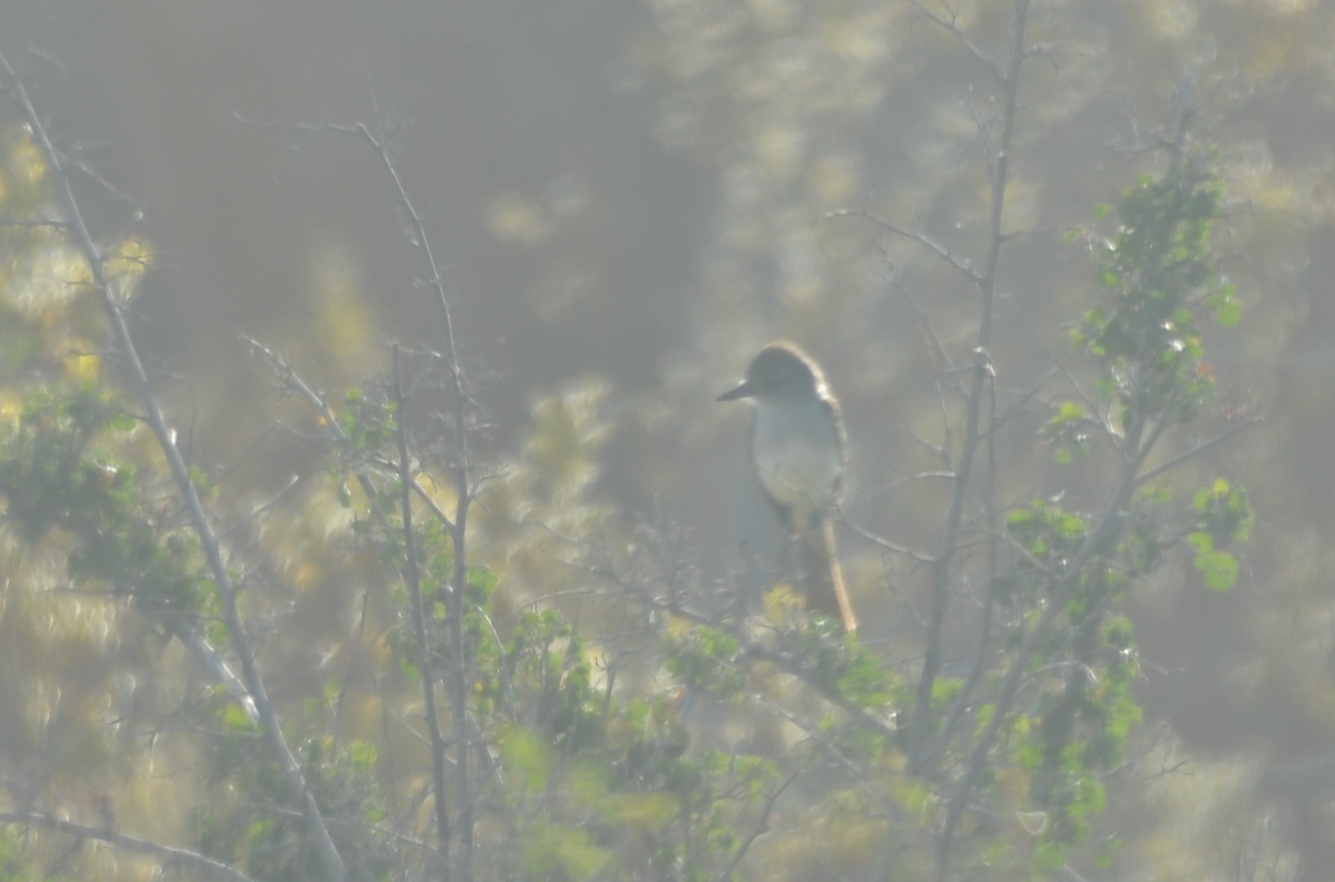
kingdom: Animalia
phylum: Chordata
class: Aves
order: Passeriformes
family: Tyrannidae
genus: Myiarchus
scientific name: Myiarchus cinerascens
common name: Ash-throated flycatcher
